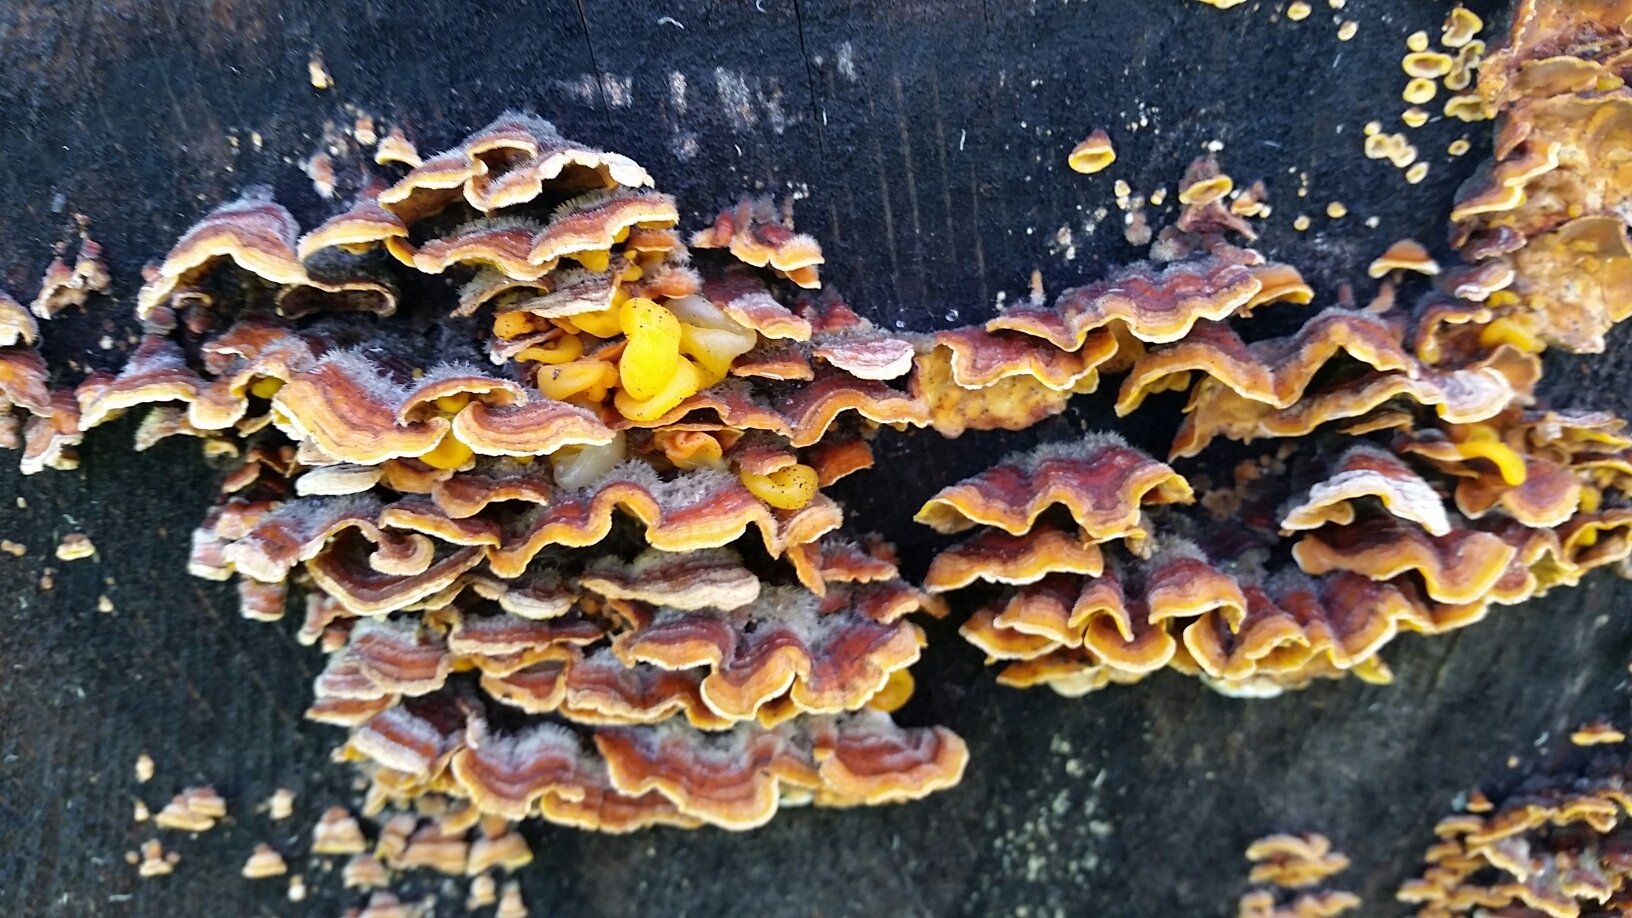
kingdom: Fungi
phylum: Basidiomycota
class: Agaricomycetes
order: Russulales
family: Stereaceae
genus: Stereum
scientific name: Stereum hirsutum
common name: Hairy curtain crust
